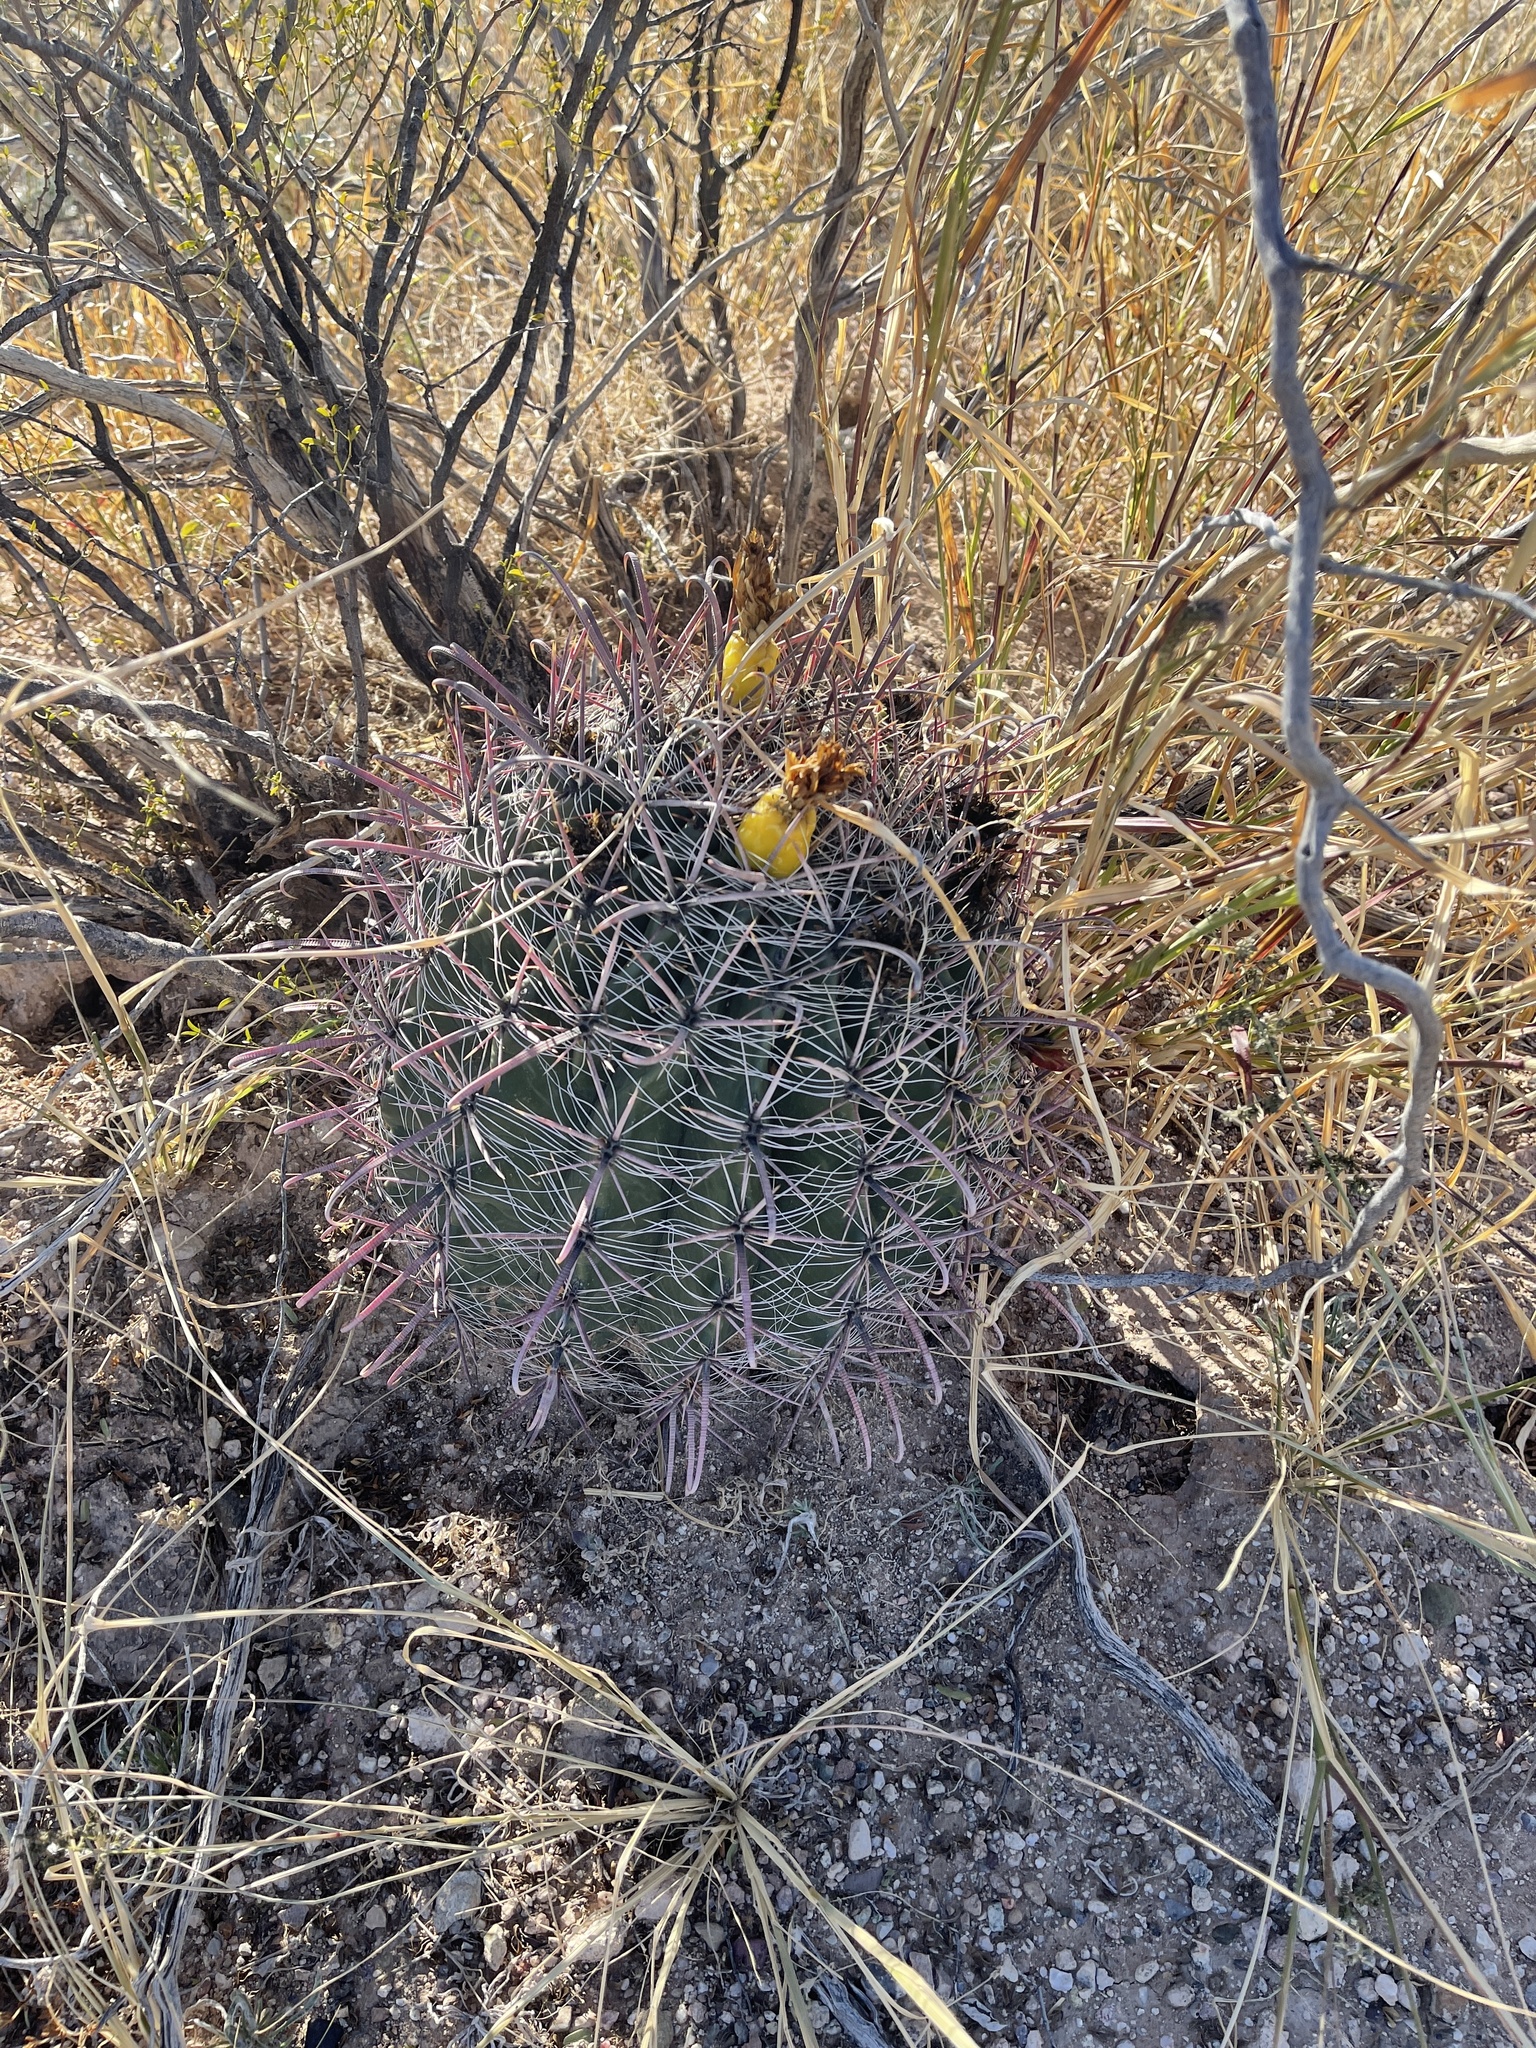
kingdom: Plantae
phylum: Tracheophyta
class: Magnoliopsida
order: Caryophyllales
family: Cactaceae
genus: Ferocactus
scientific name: Ferocactus wislizeni
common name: Candy barrel cactus
